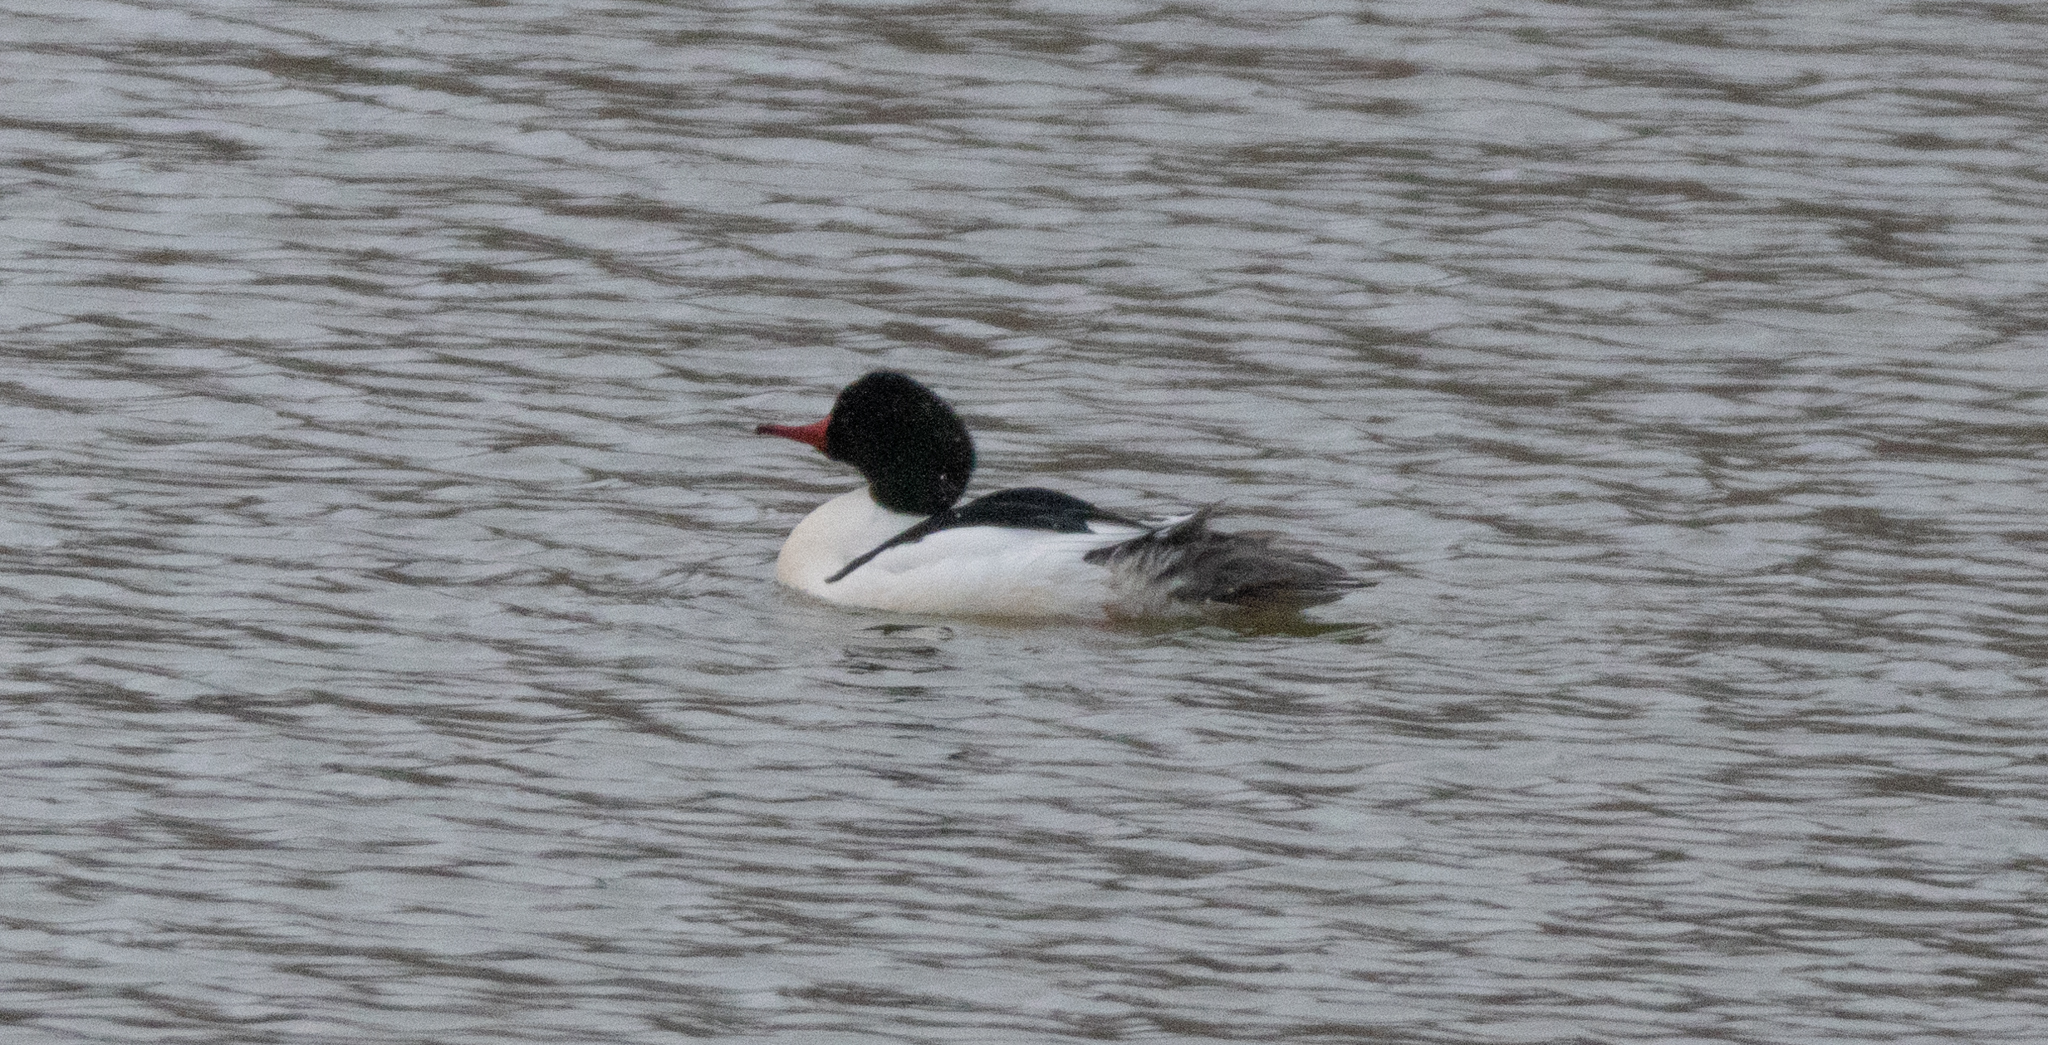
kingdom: Animalia
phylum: Chordata
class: Aves
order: Anseriformes
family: Anatidae
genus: Mergus
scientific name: Mergus merganser
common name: Common merganser
